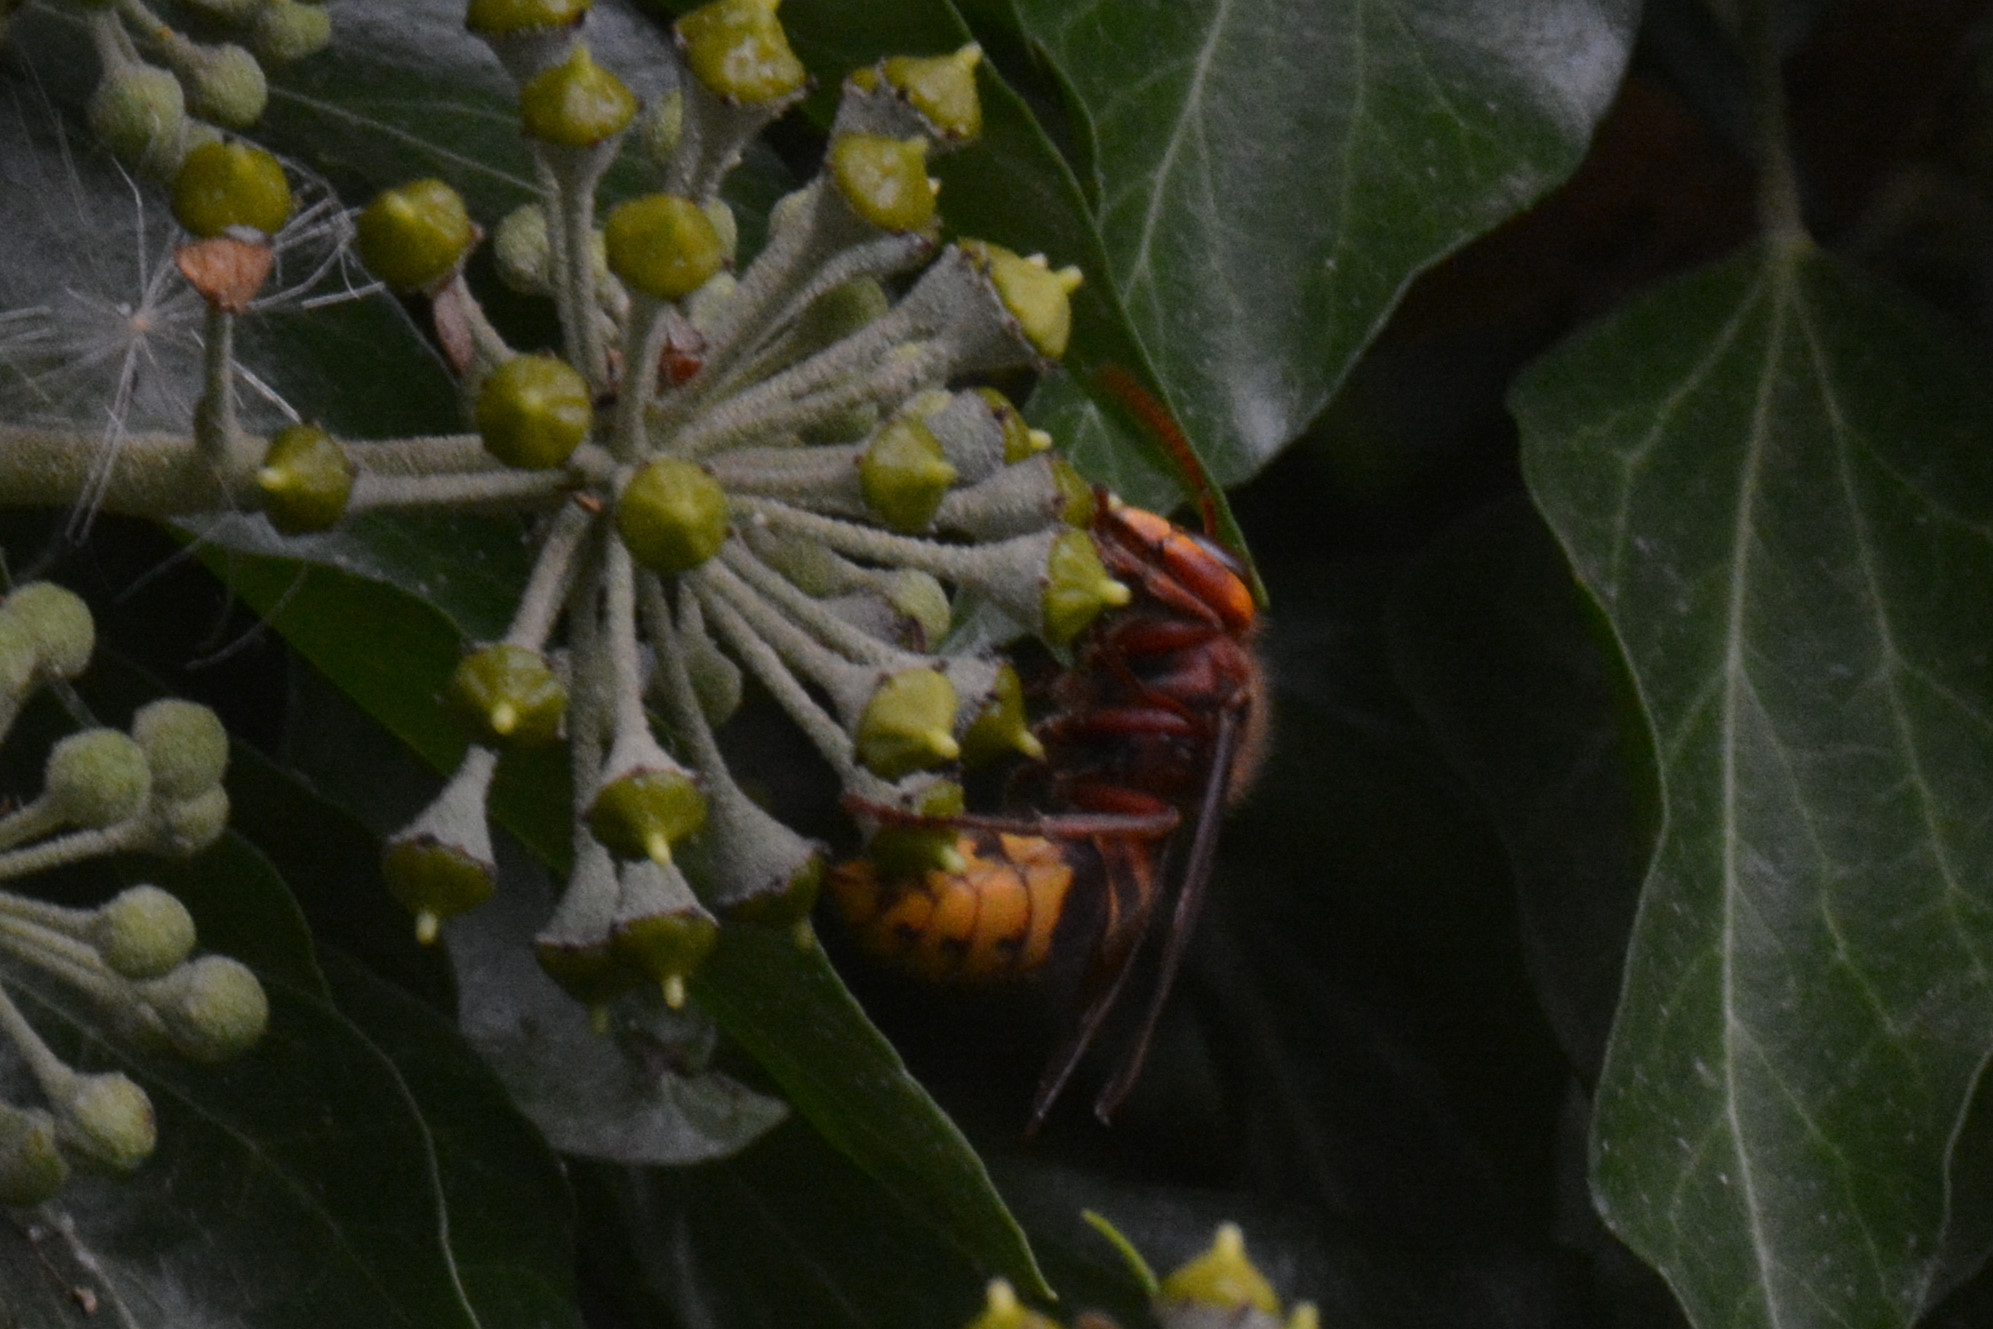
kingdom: Animalia
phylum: Arthropoda
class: Insecta
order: Hymenoptera
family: Vespidae
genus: Vespa
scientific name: Vespa crabro
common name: Hornet
